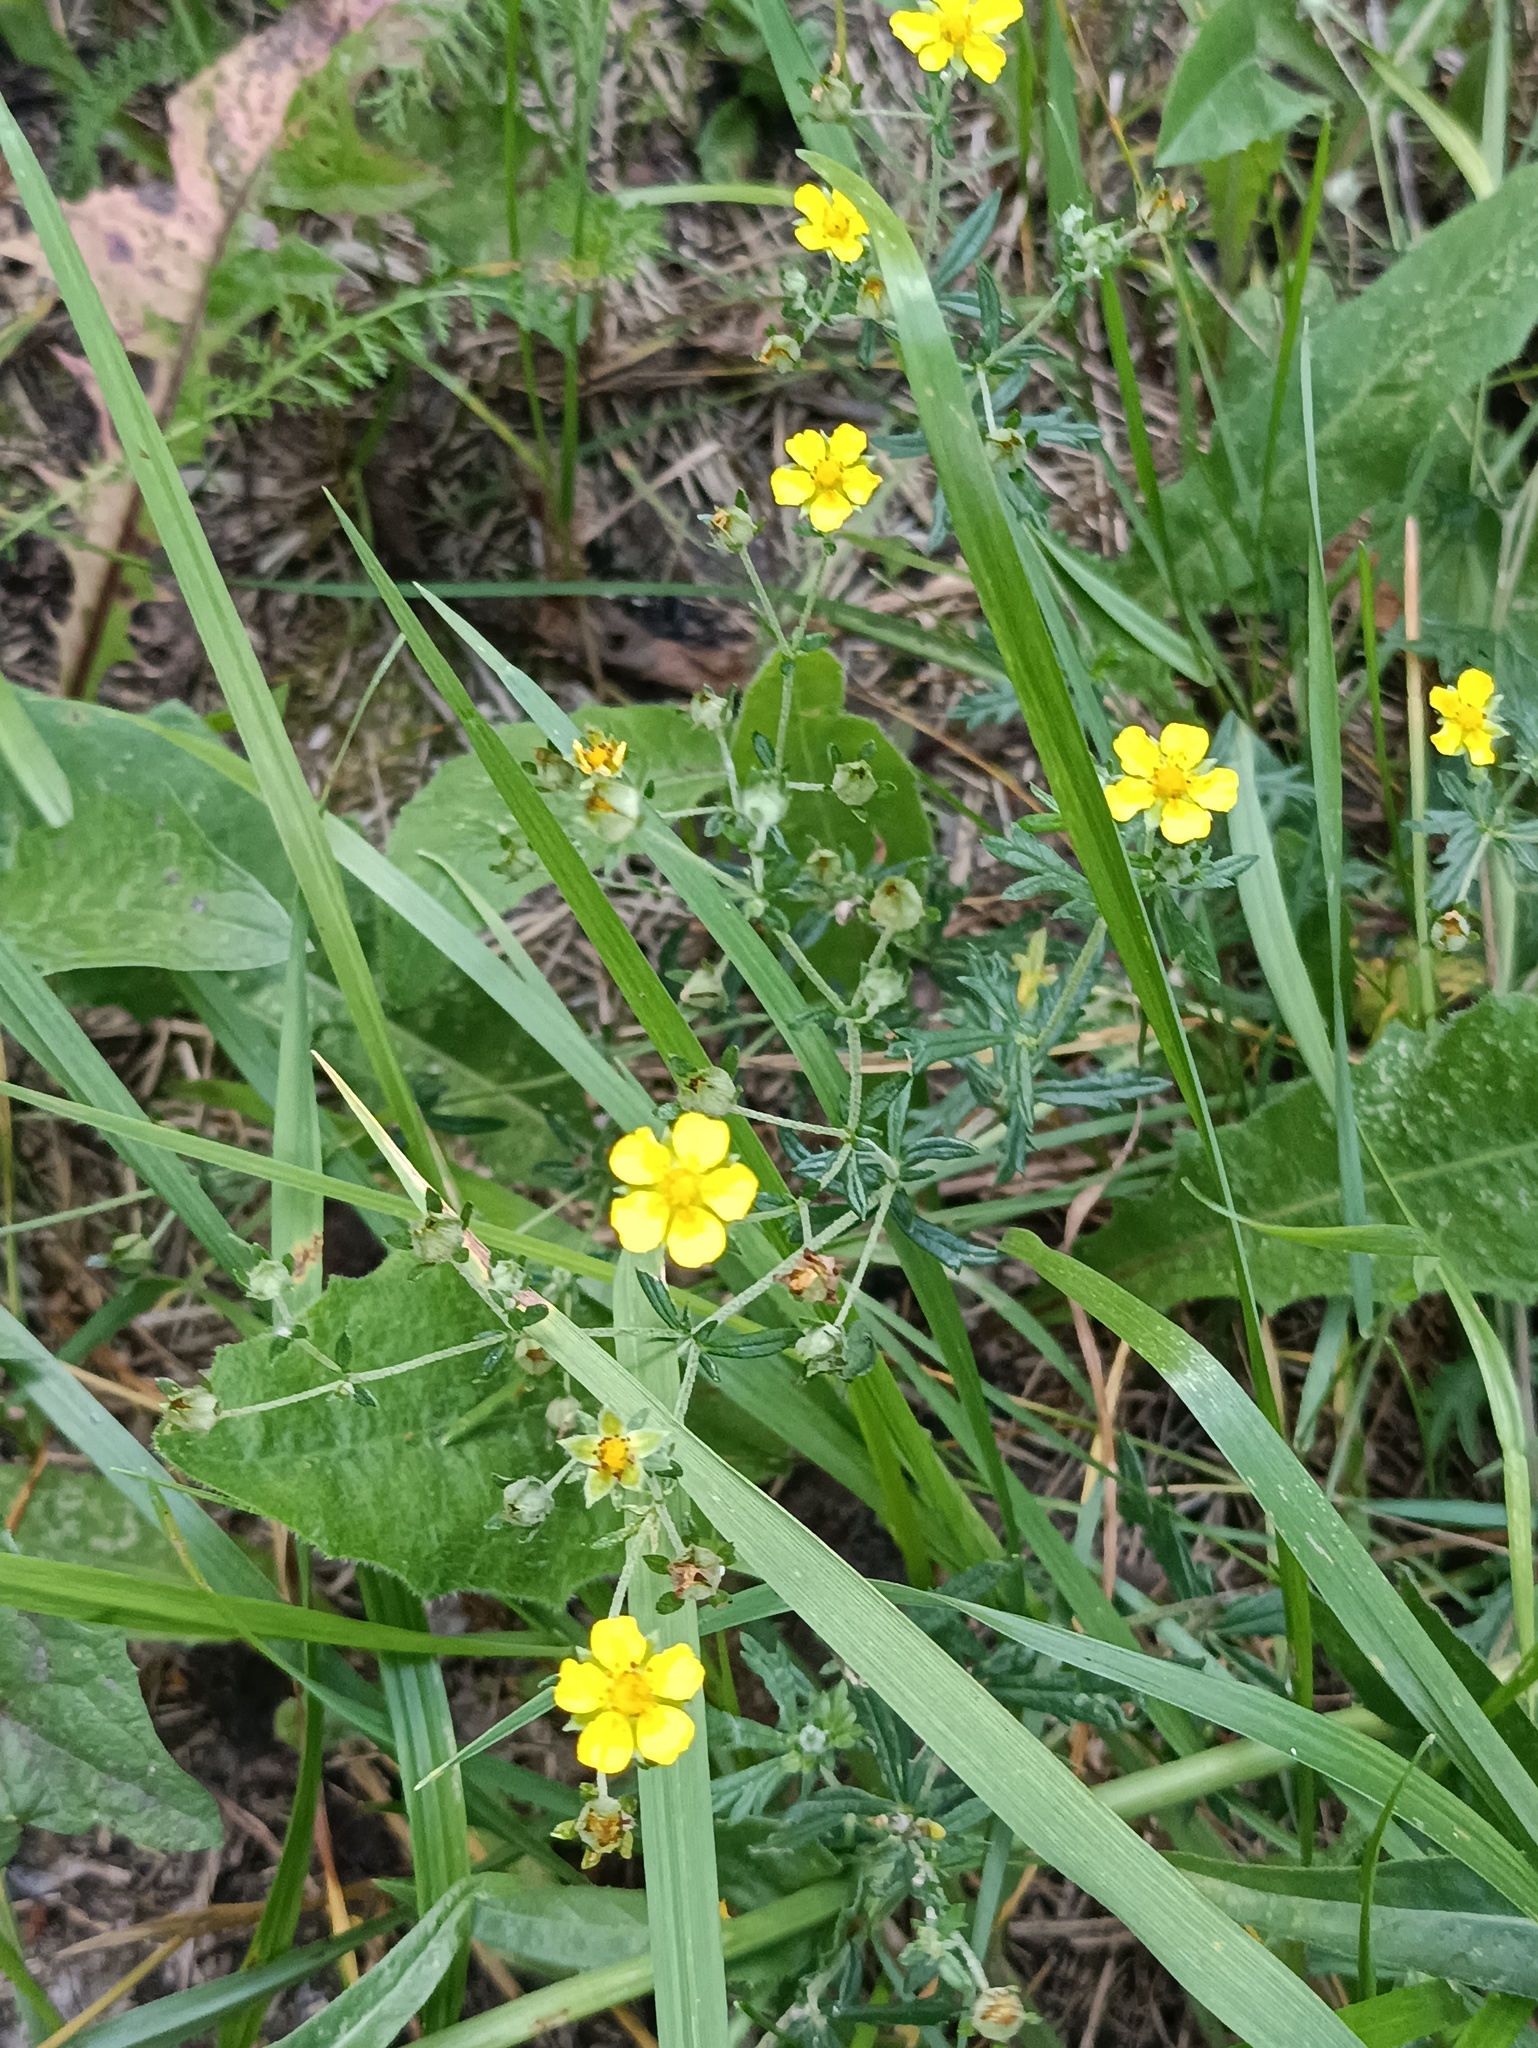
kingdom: Plantae
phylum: Tracheophyta
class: Magnoliopsida
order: Rosales
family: Rosaceae
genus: Potentilla
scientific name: Potentilla argentea
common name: Hoary cinquefoil
